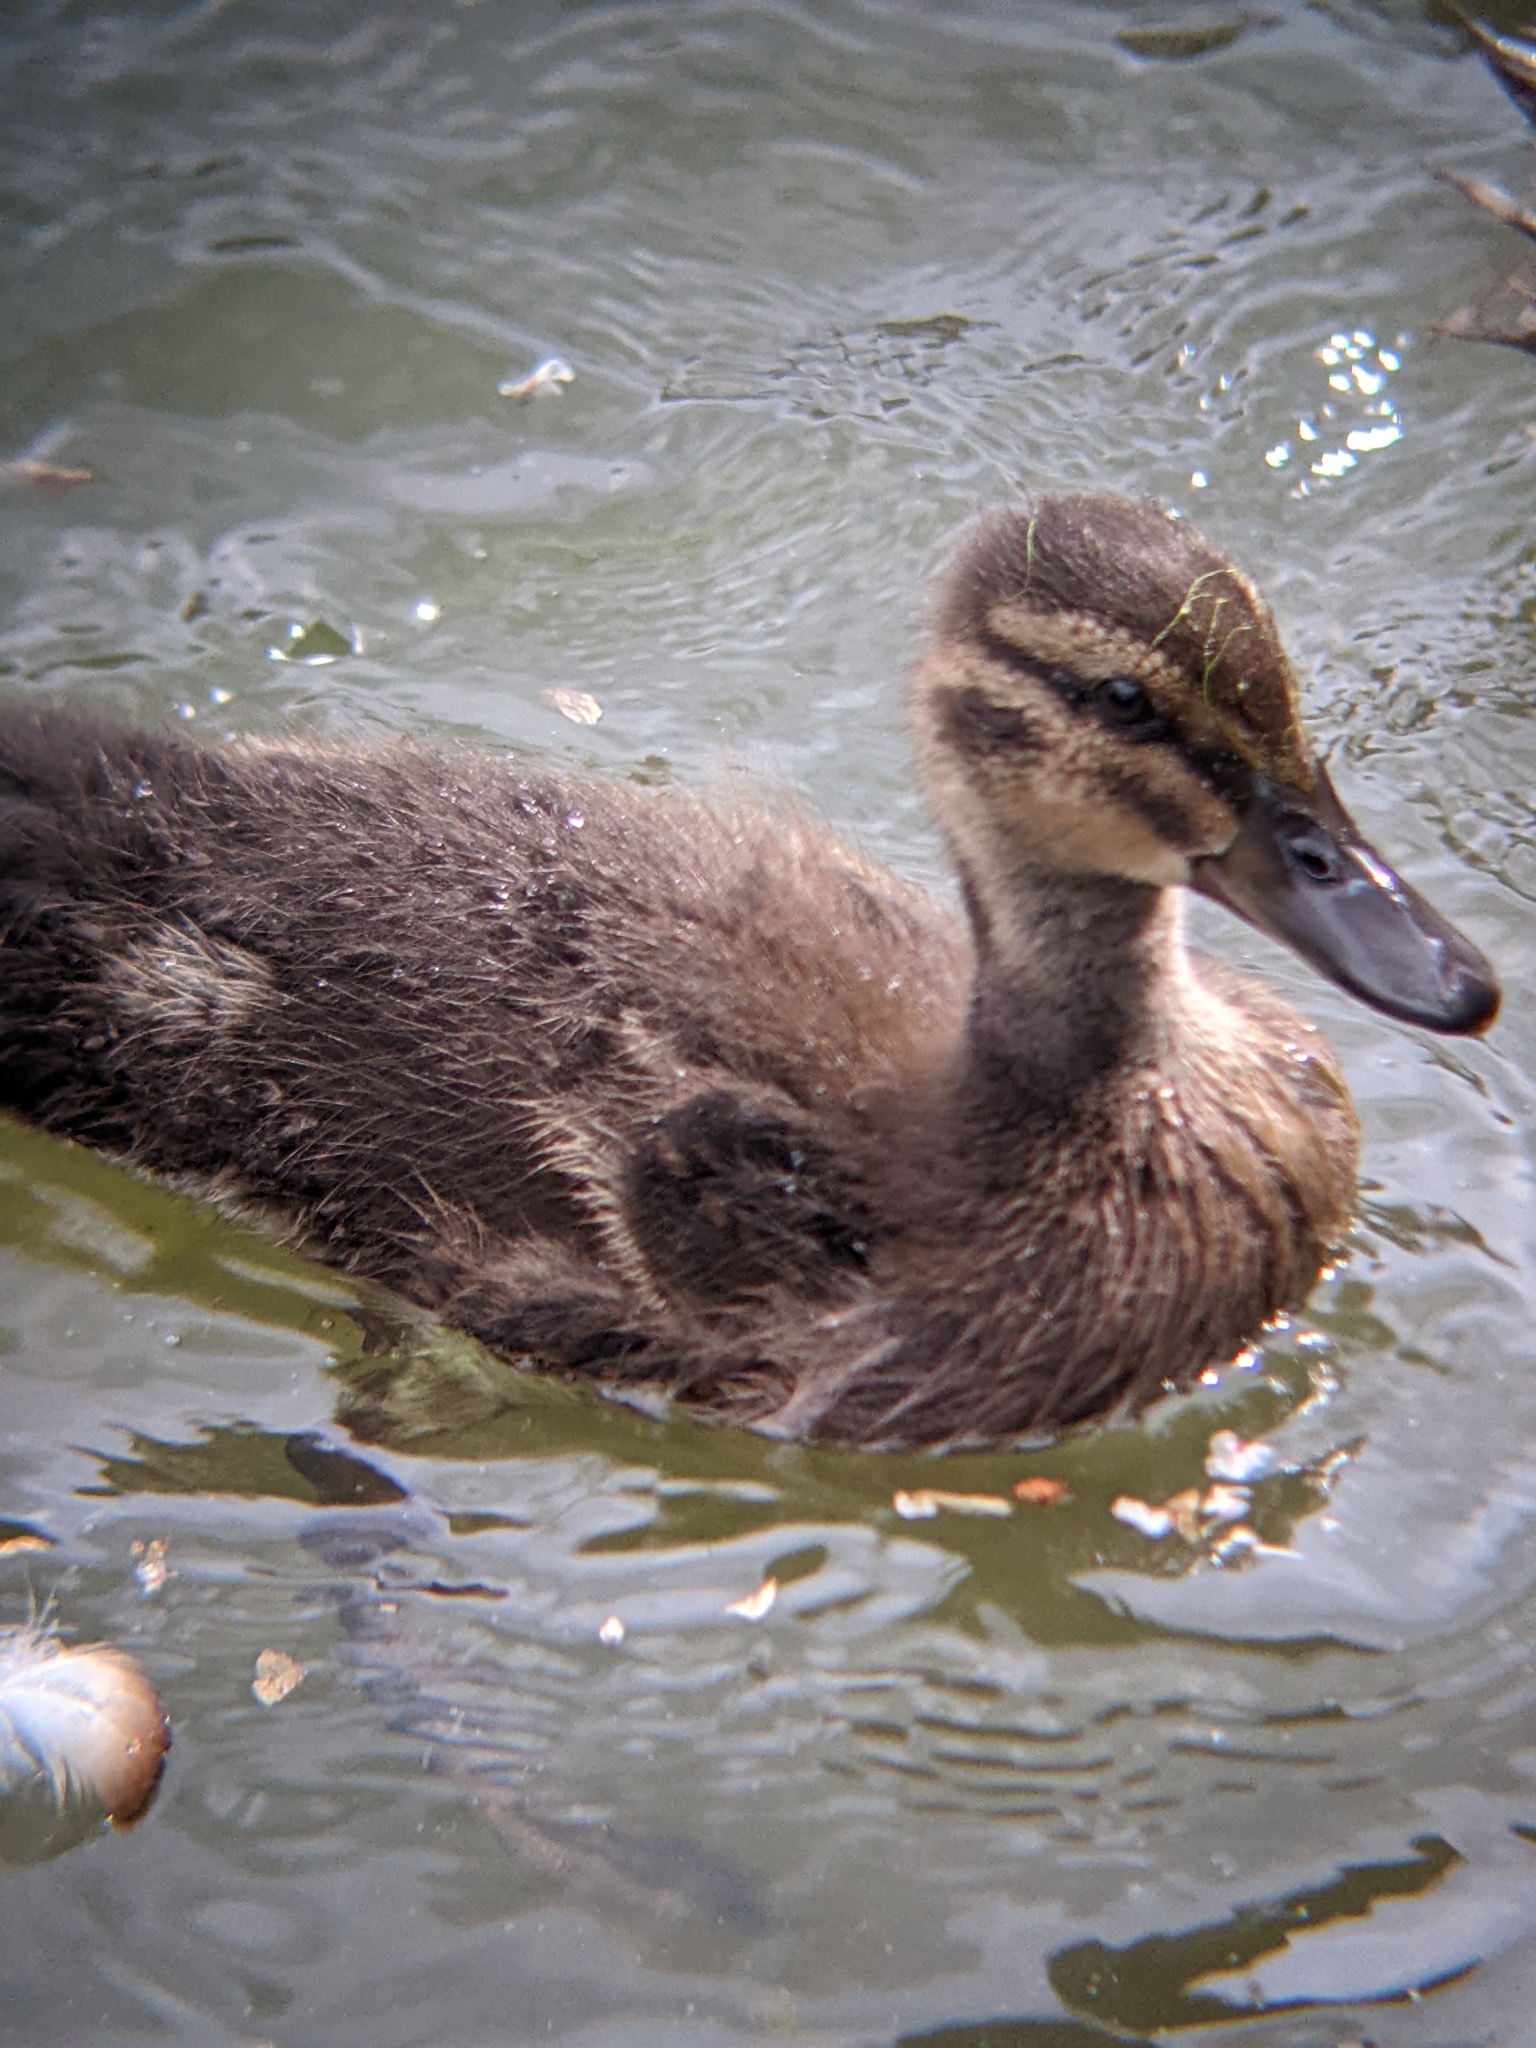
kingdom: Animalia
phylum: Chordata
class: Aves
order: Anseriformes
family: Anatidae
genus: Anas
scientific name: Anas platyrhynchos
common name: Mallard
